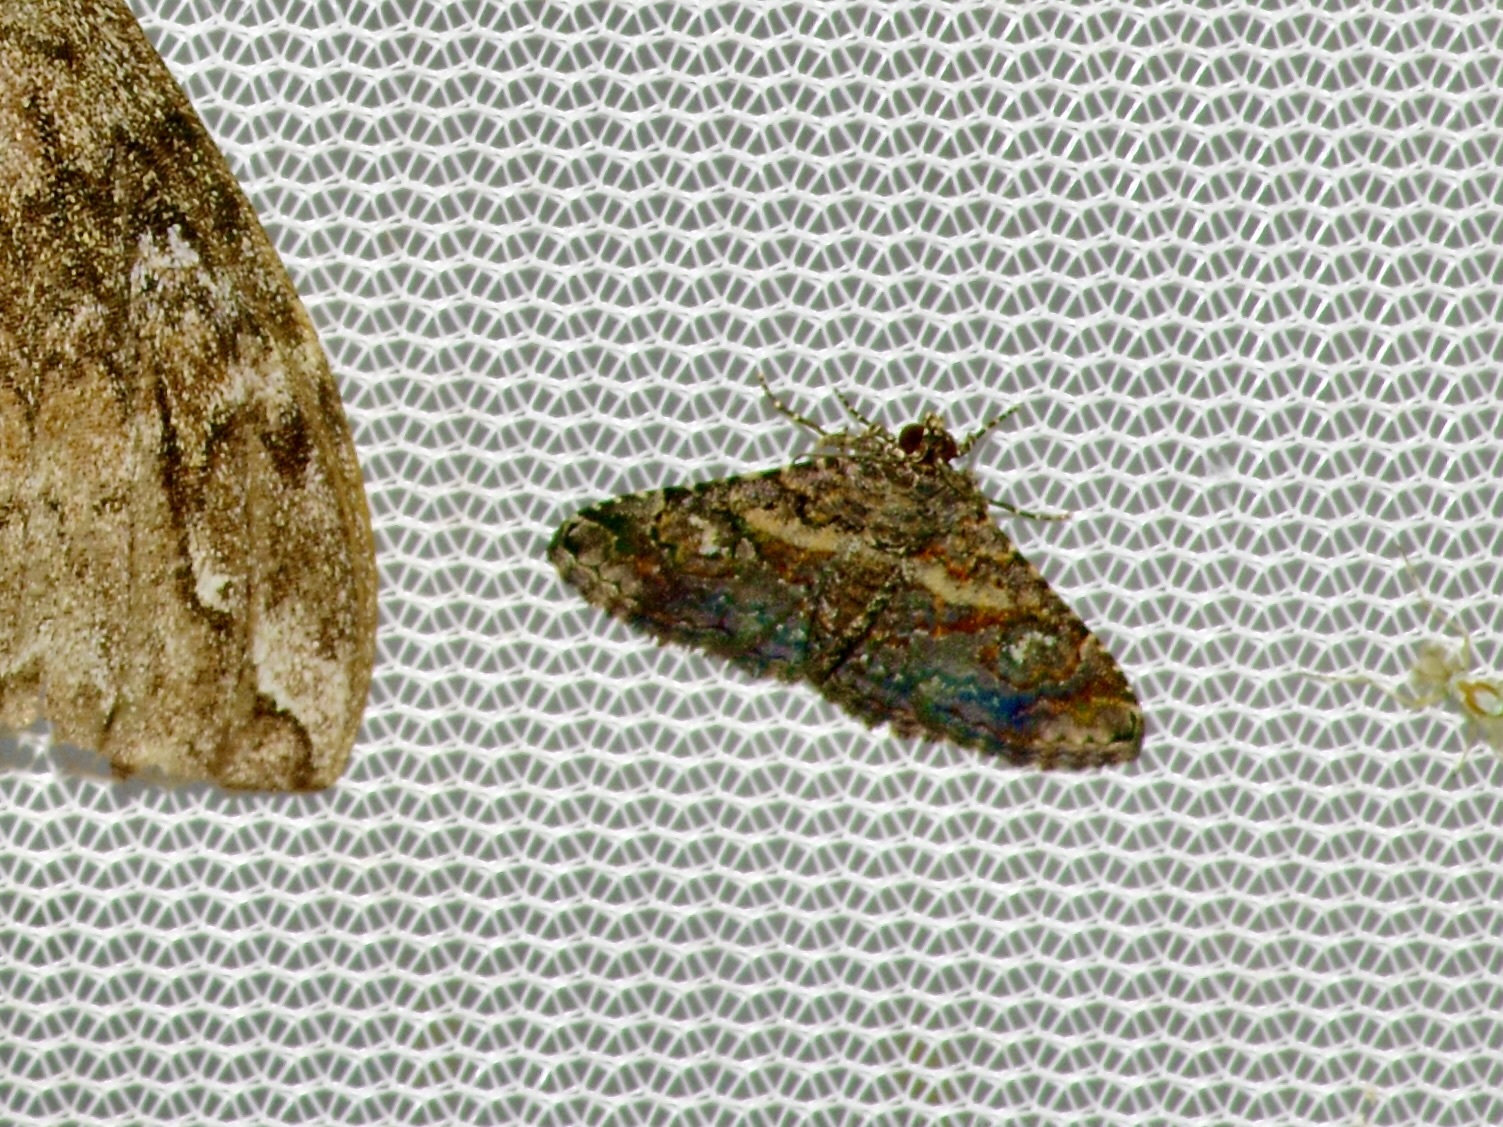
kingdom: Animalia
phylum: Arthropoda
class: Insecta
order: Lepidoptera
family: Erebidae
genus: Toxonprucha
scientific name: Toxonprucha excavata
